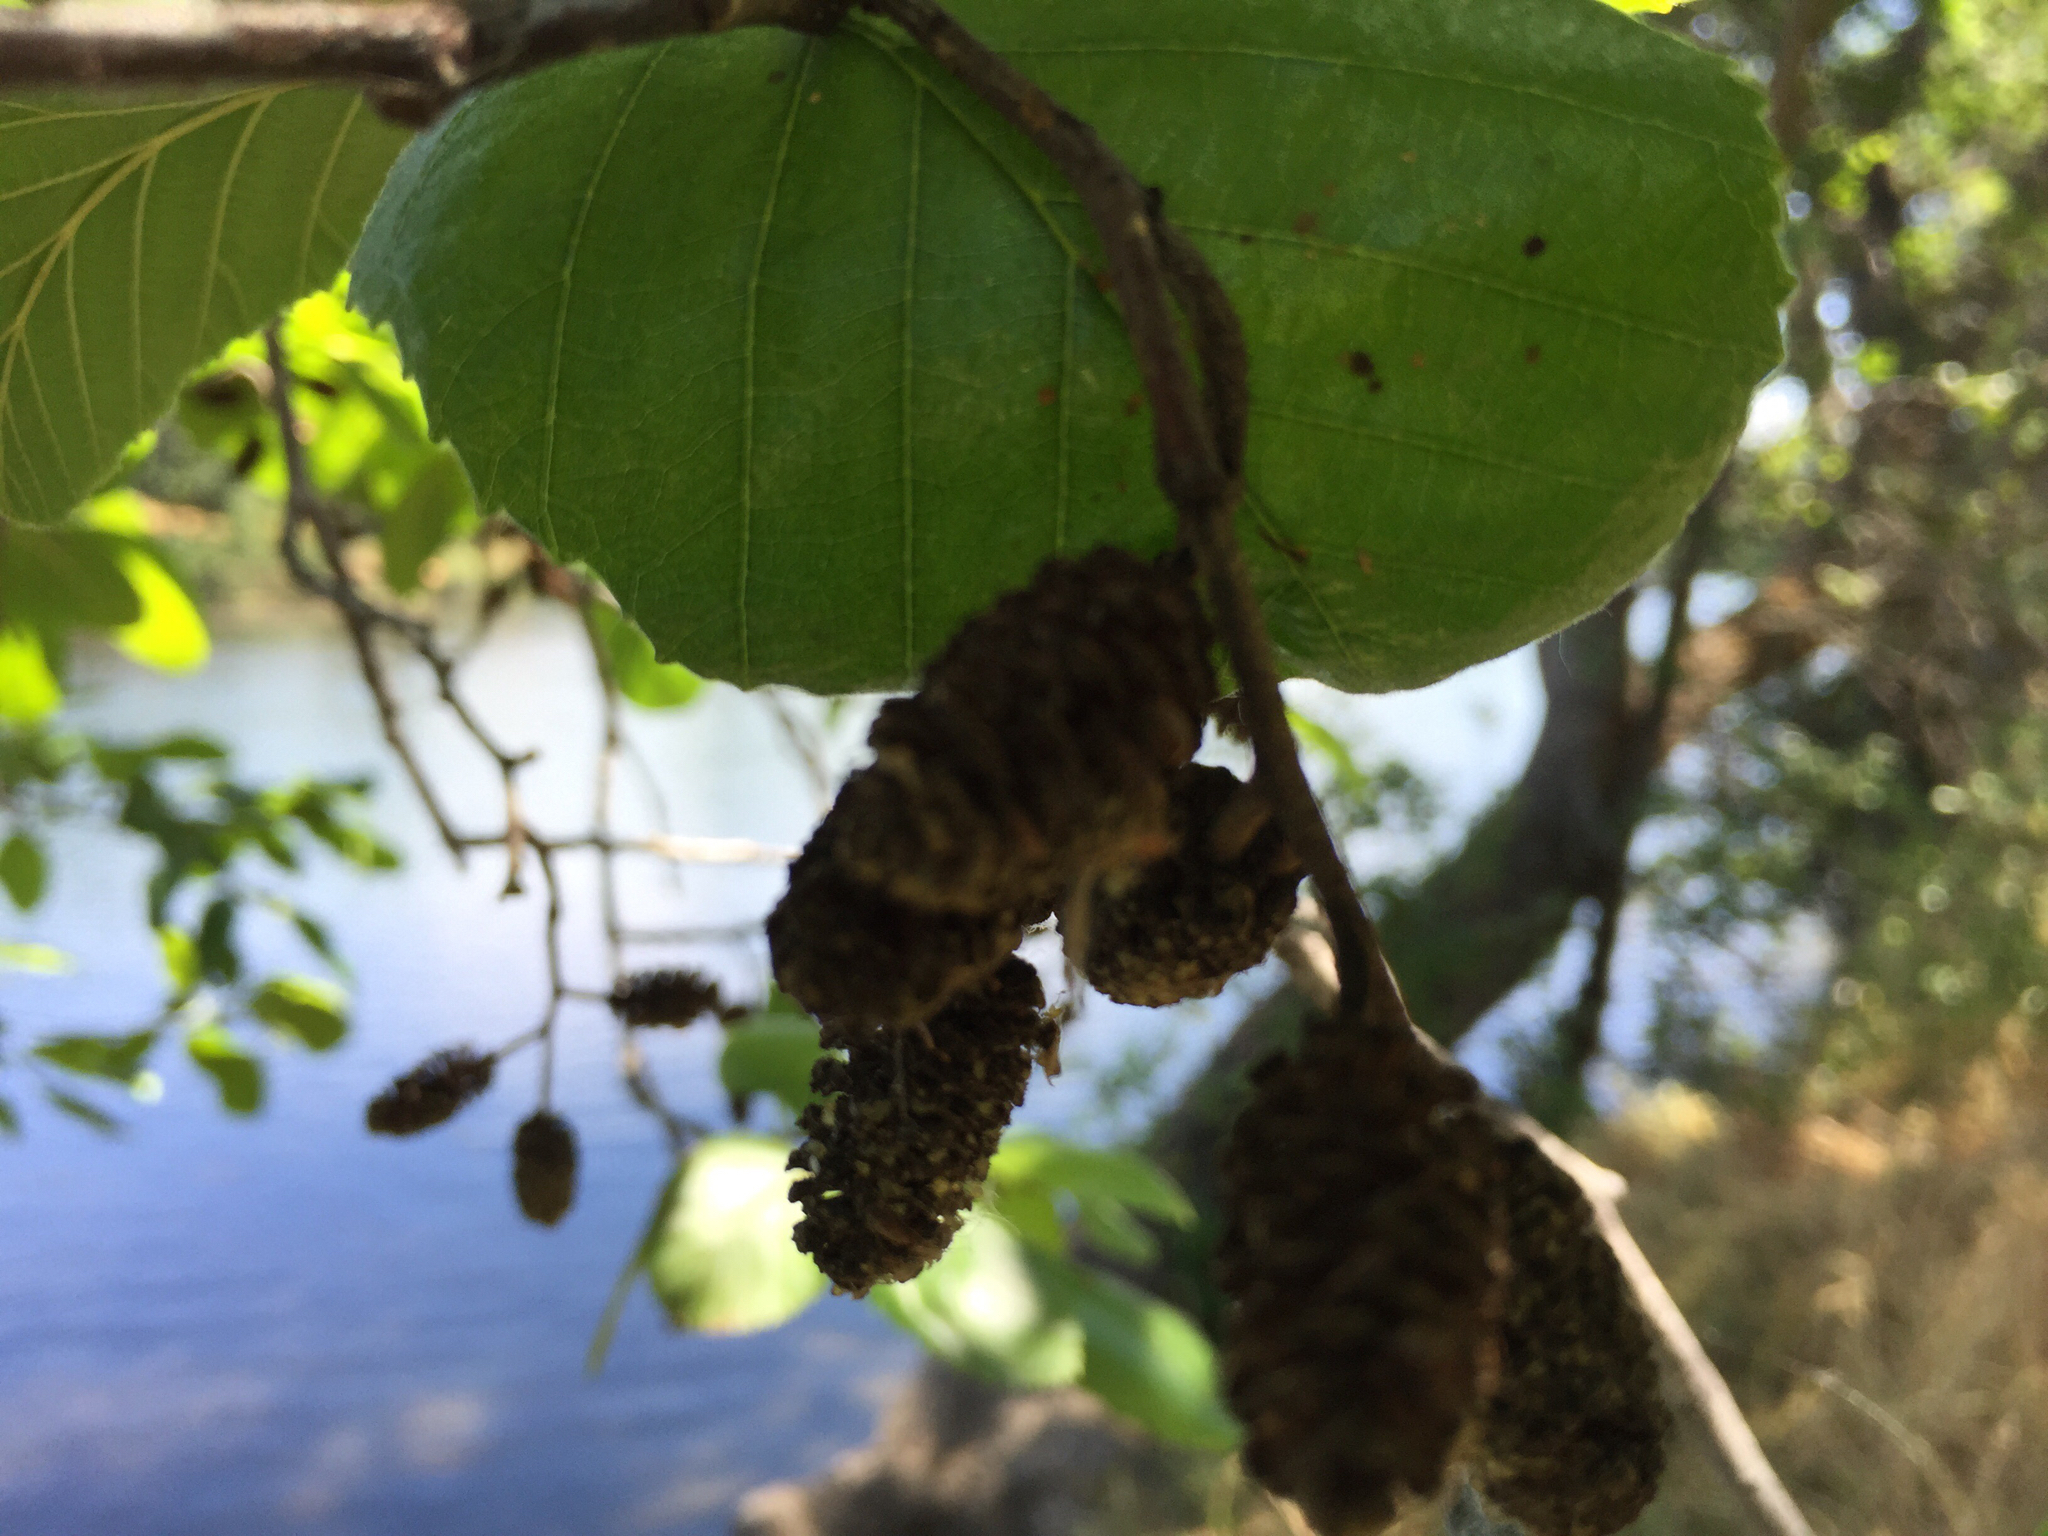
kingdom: Plantae
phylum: Tracheophyta
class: Magnoliopsida
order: Fagales
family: Betulaceae
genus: Alnus
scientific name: Alnus rhombifolia
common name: California alder
